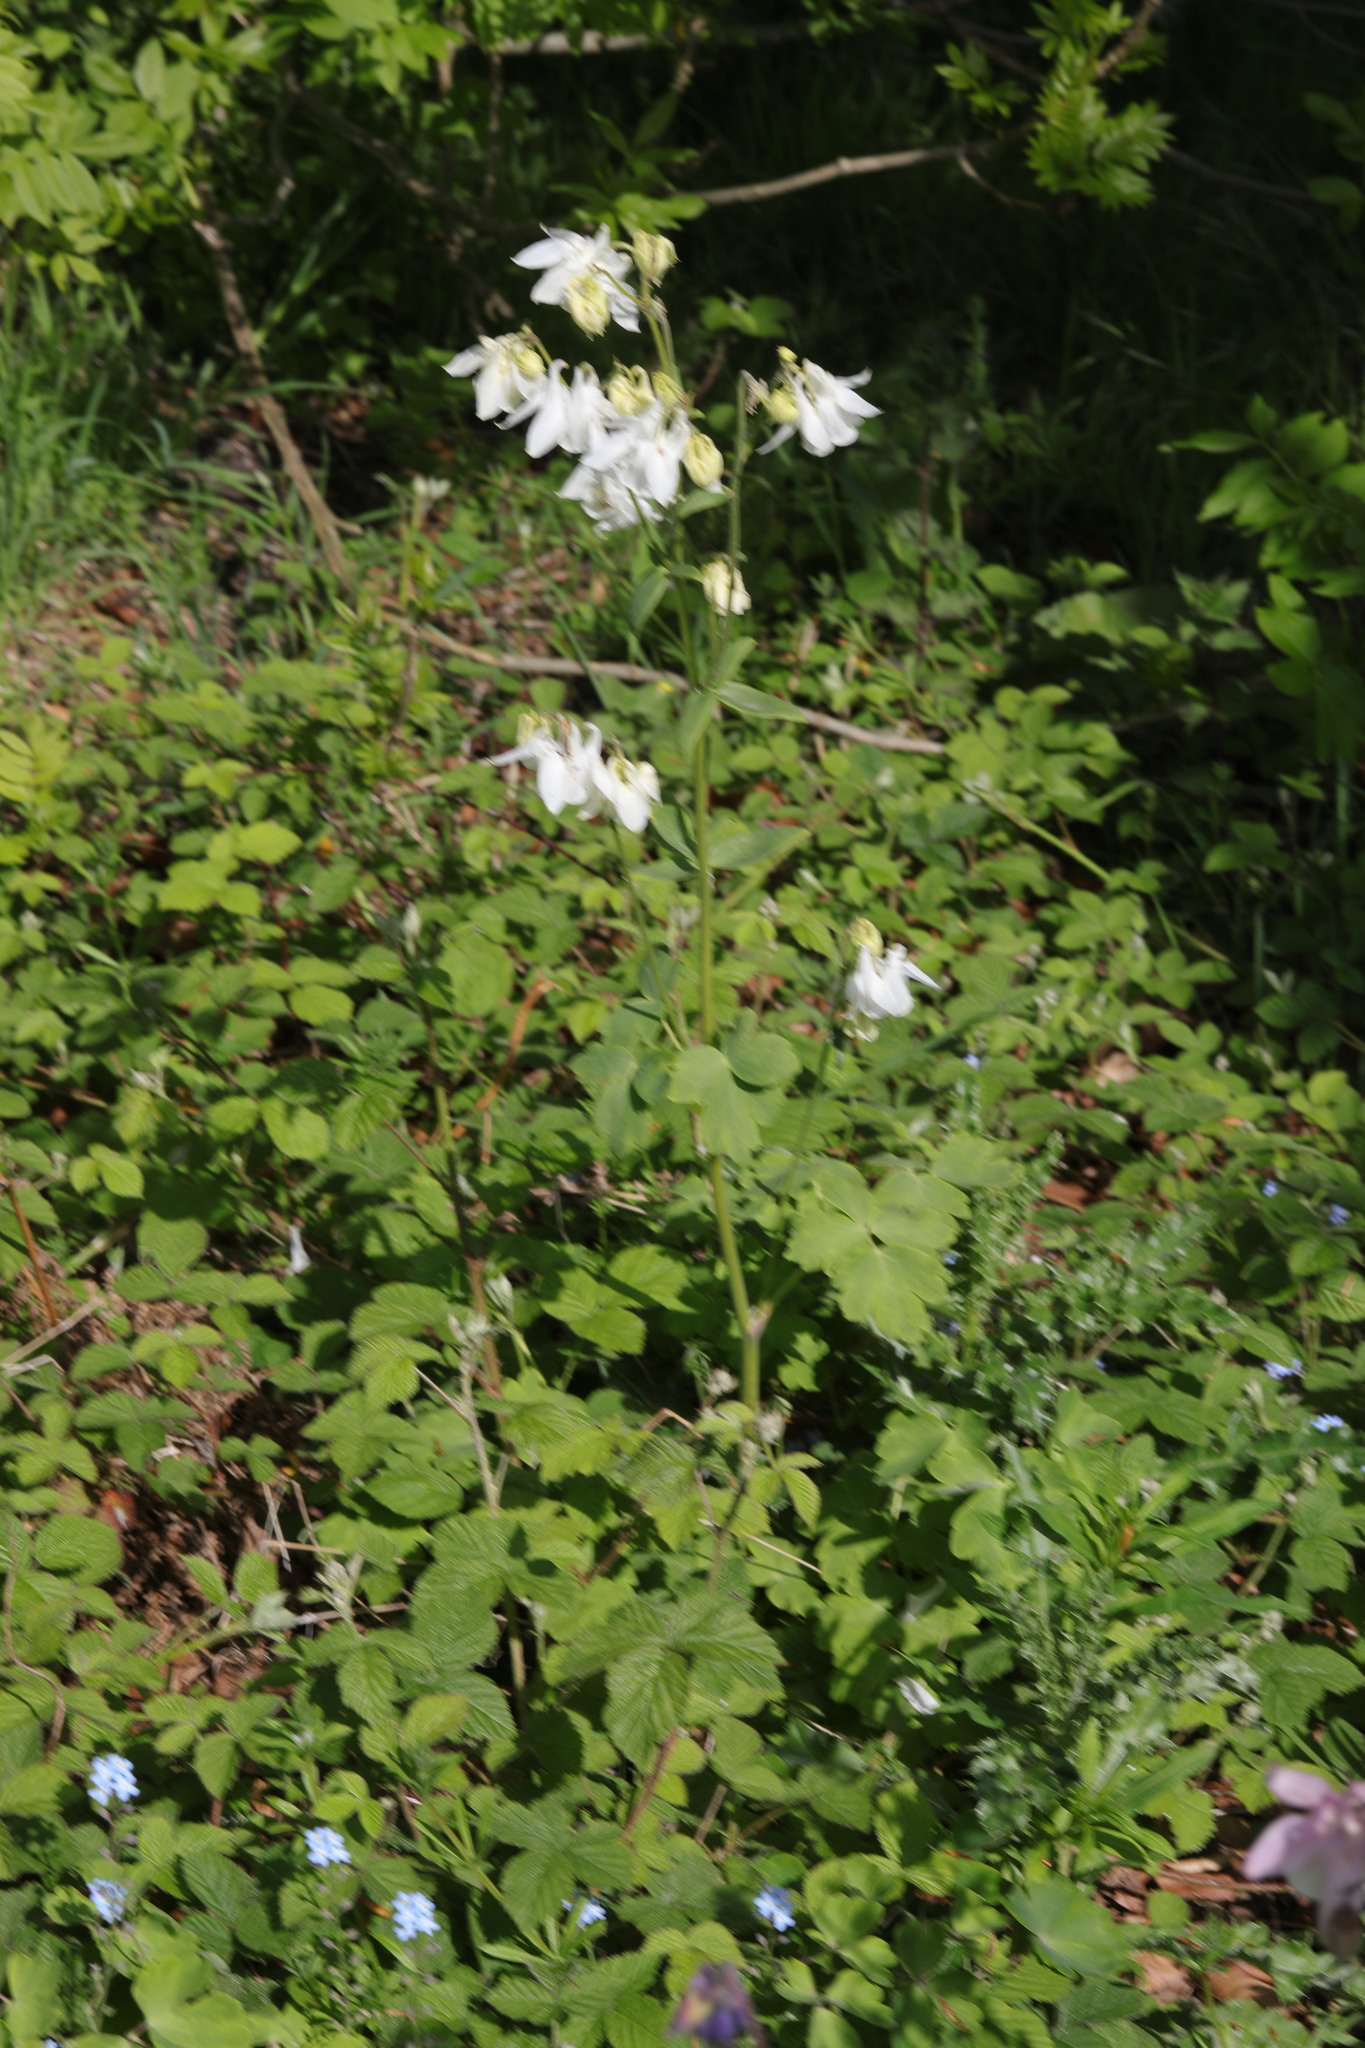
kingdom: Plantae
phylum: Tracheophyta
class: Magnoliopsida
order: Ranunculales
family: Ranunculaceae
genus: Aquilegia
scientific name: Aquilegia vulgaris
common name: Columbine
